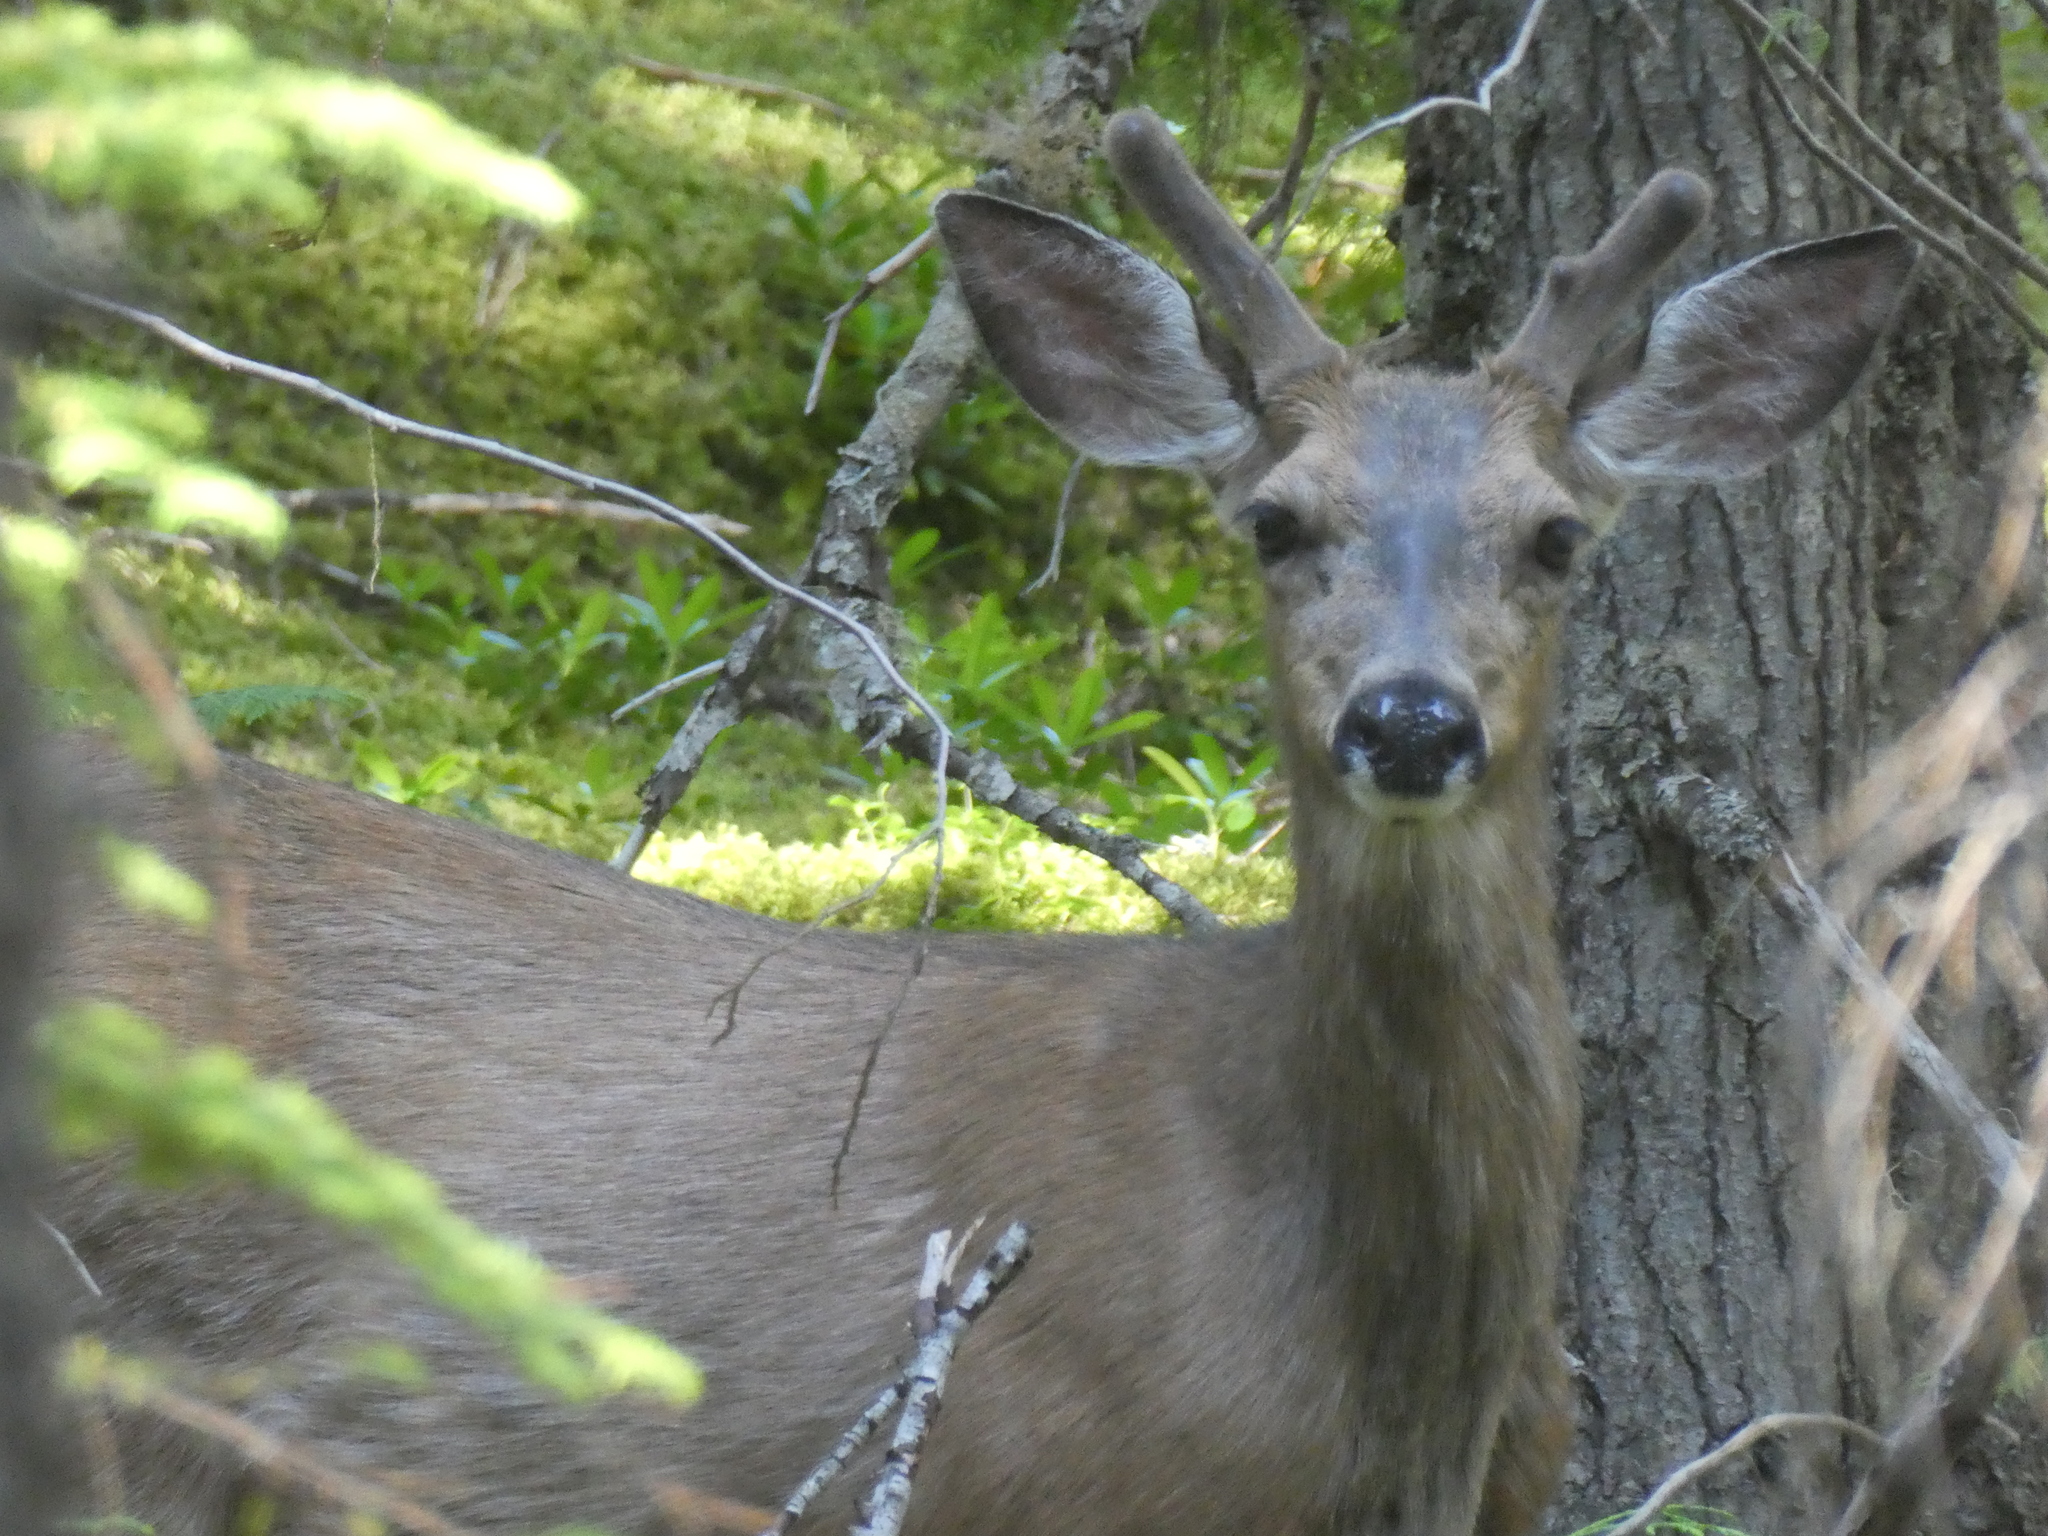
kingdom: Animalia
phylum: Chordata
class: Mammalia
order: Artiodactyla
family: Cervidae
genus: Odocoileus
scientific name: Odocoileus hemionus
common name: Mule deer
